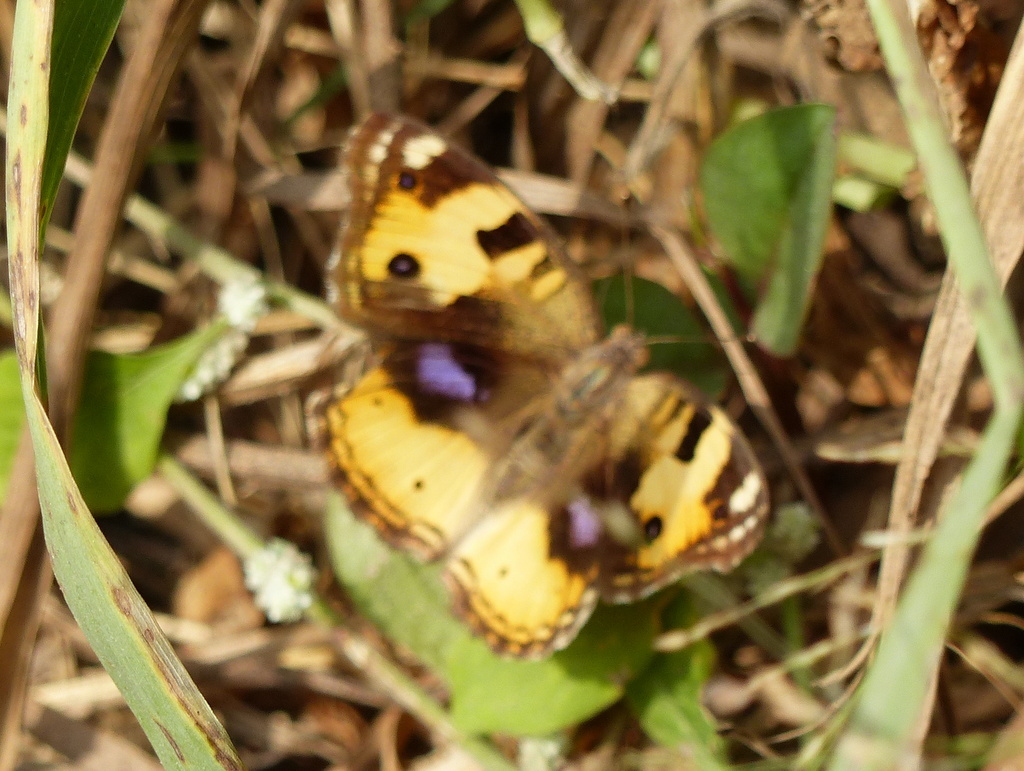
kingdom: Animalia
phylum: Arthropoda
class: Insecta
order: Lepidoptera
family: Nymphalidae
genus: Junonia
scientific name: Junonia hierta
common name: Yellow pansy
